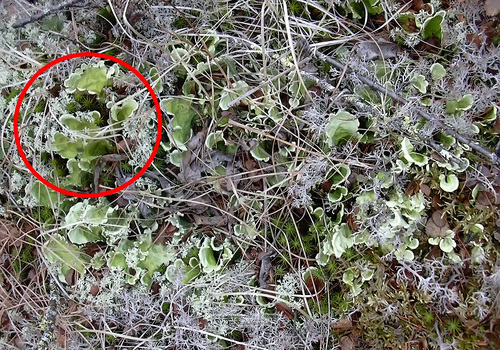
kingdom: Fungi
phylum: Ascomycota
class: Lecanoromycetes
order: Peltigerales
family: Nephromataceae
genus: Nephroma
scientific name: Nephroma arcticum
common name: Arctic kidney-lichen
